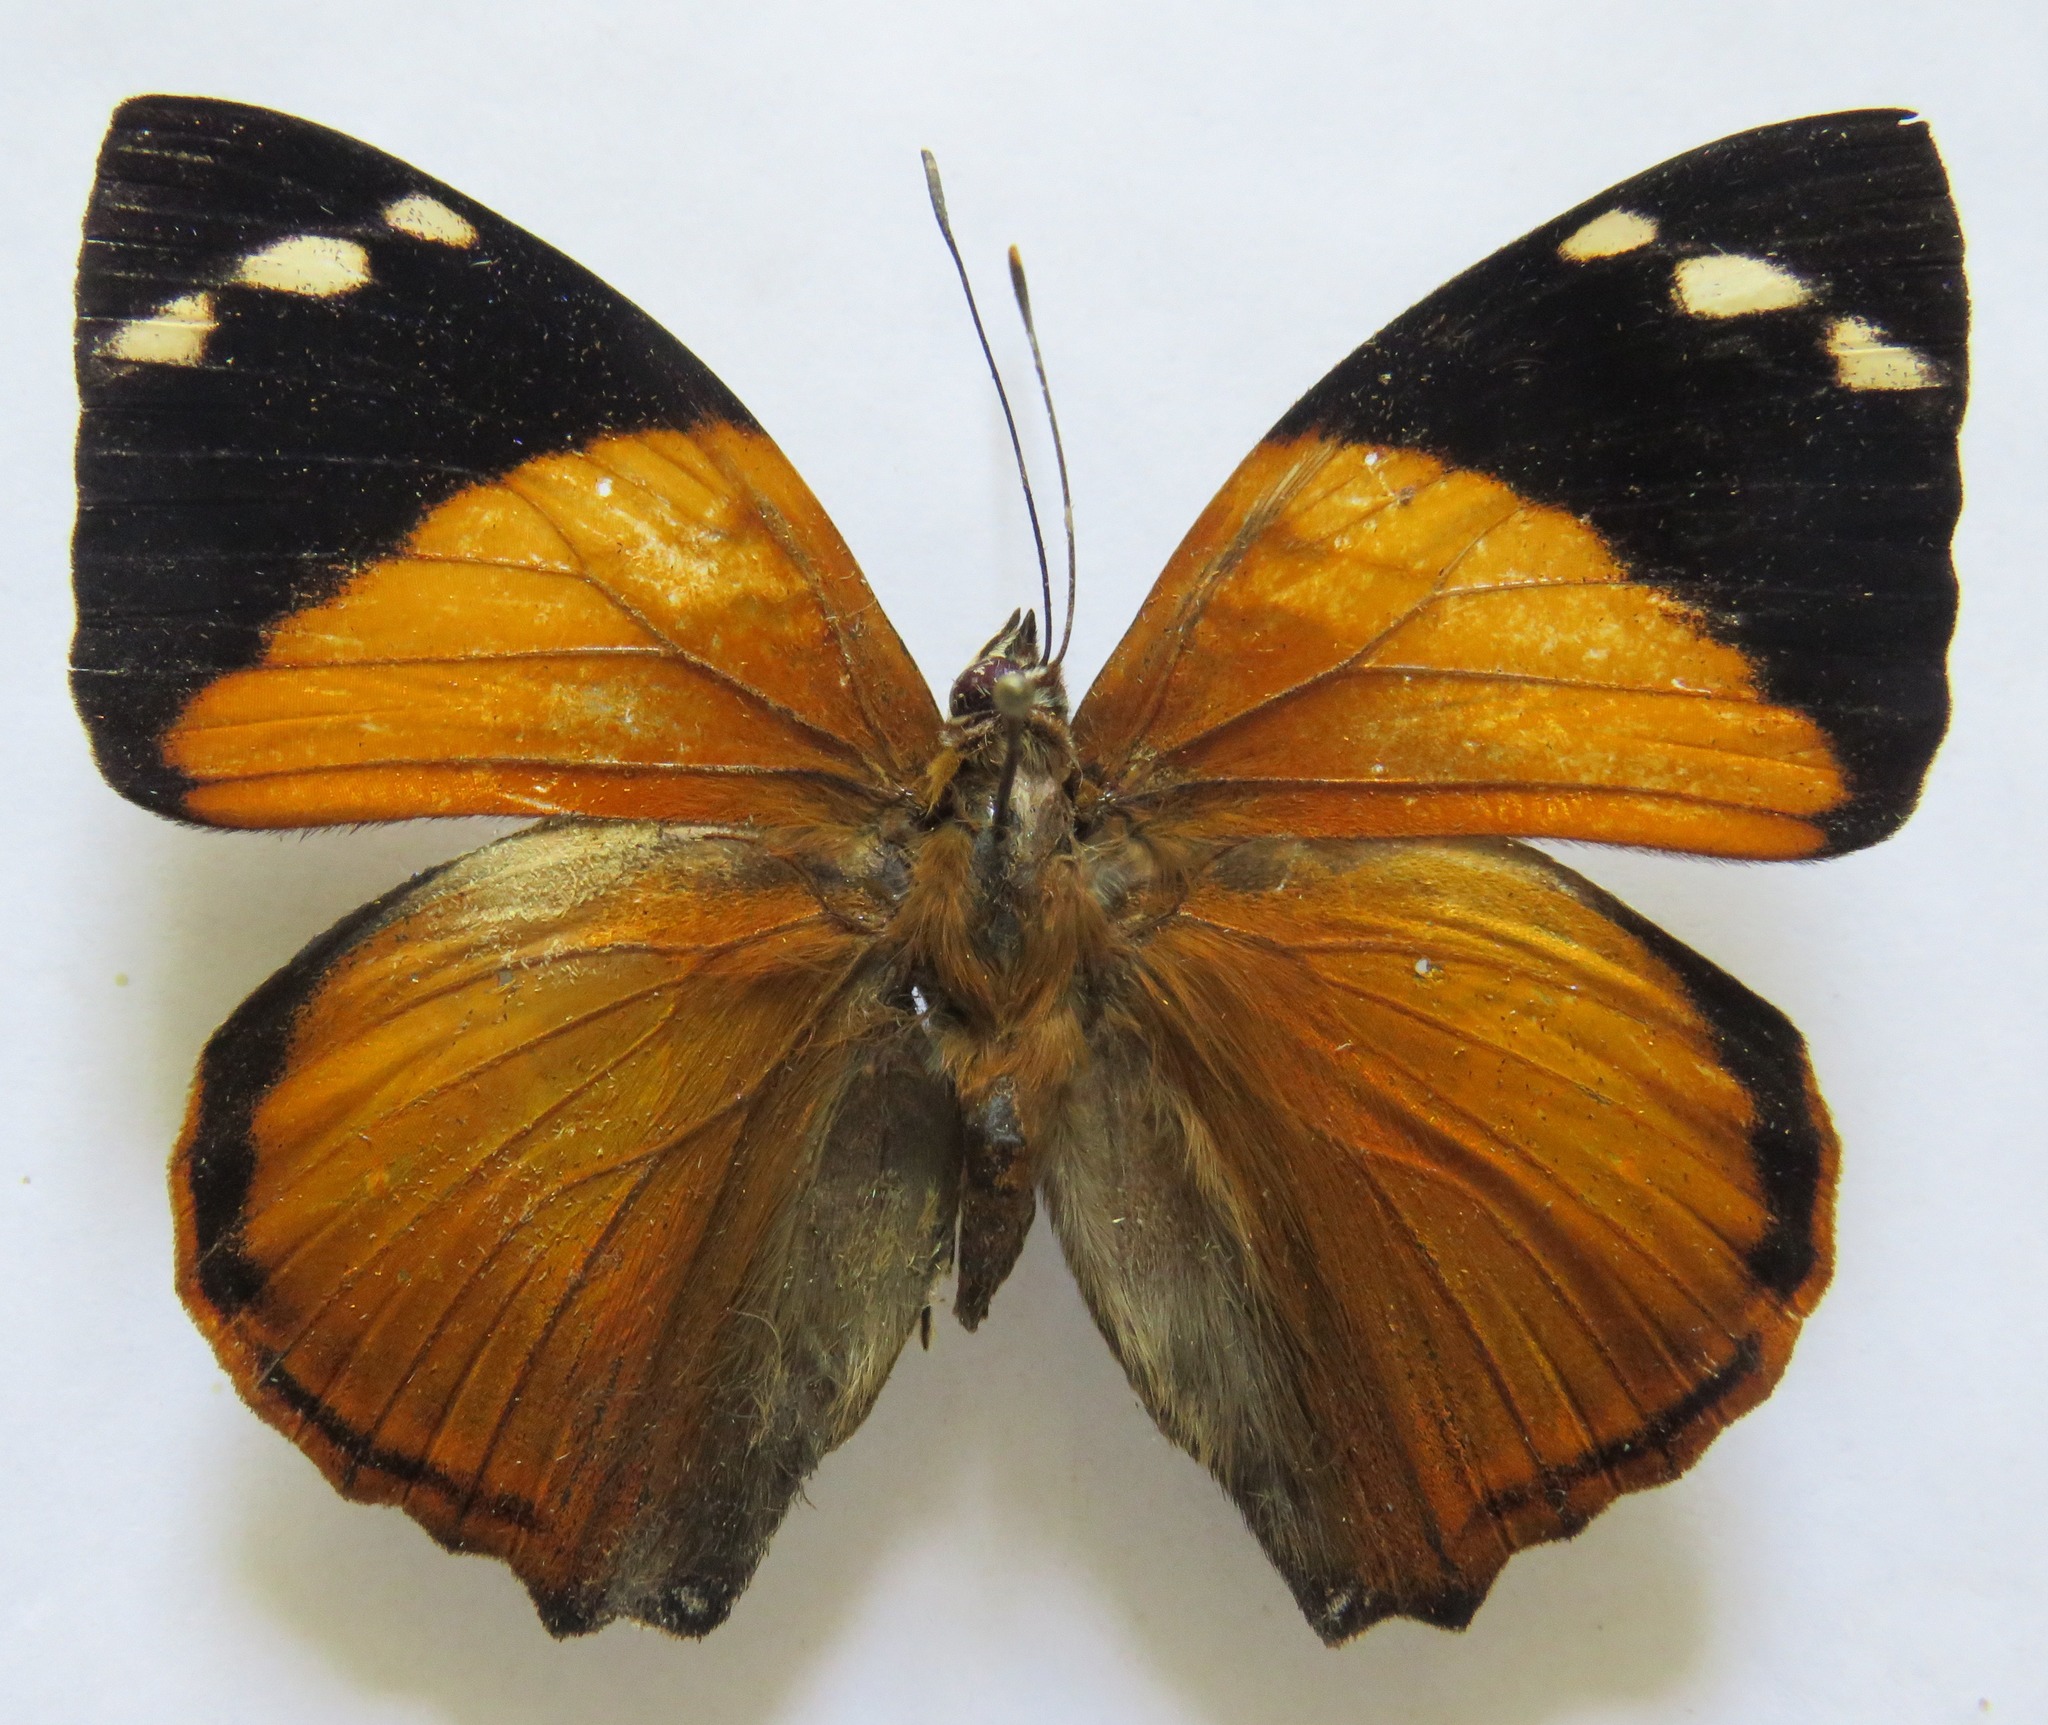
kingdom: Animalia
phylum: Arthropoda
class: Insecta
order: Lepidoptera
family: Nymphalidae
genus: Smyrna
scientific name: Smyrna blomfildia
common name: Blomfild's beauty
